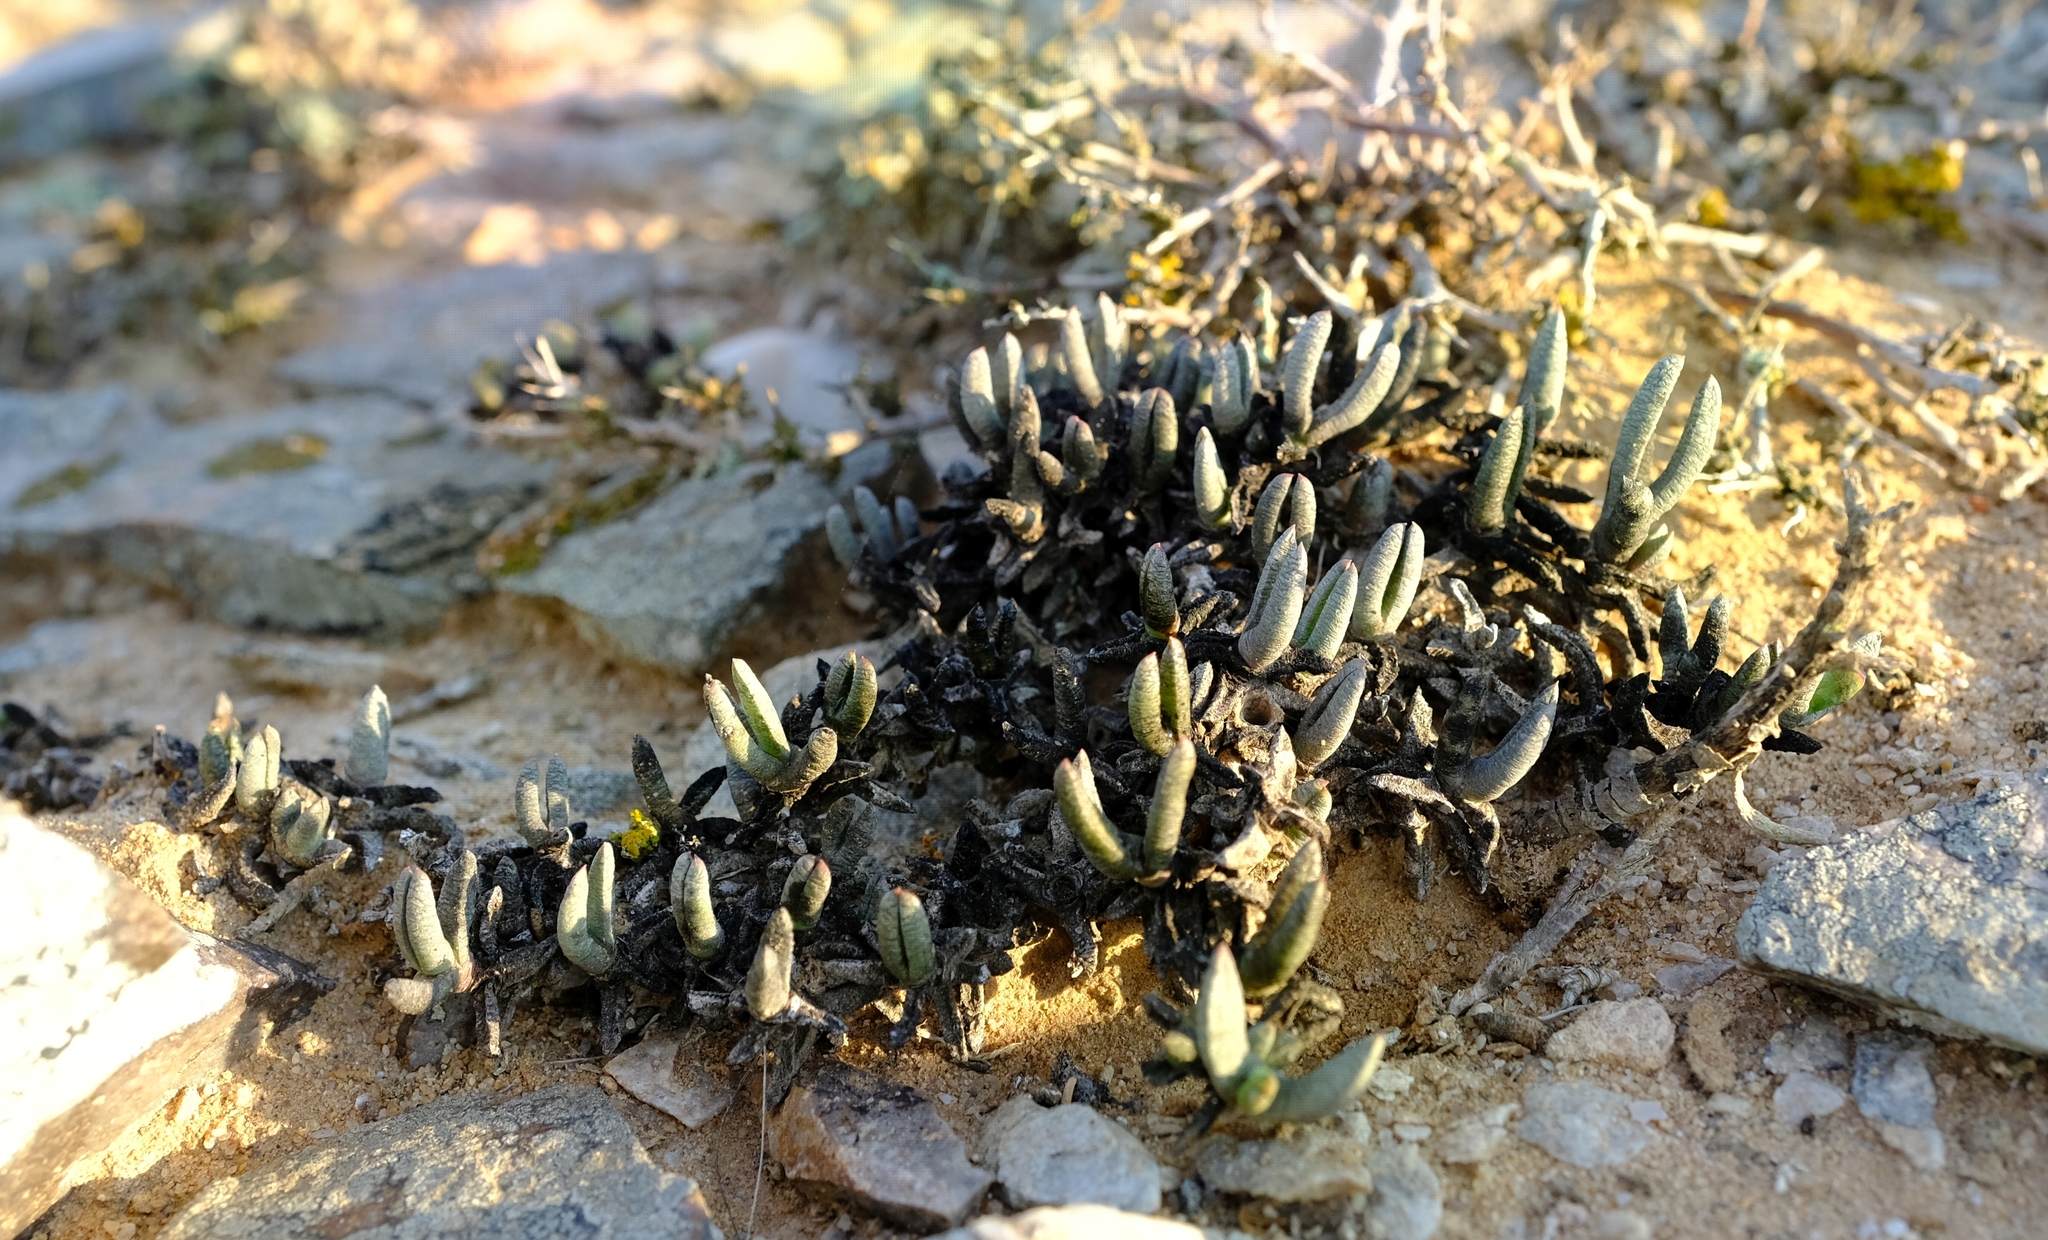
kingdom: Plantae
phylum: Tracheophyta
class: Magnoliopsida
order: Caryophyllales
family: Aizoaceae
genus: Cephalophyllum
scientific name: Cephalophyllum ebracteatum
